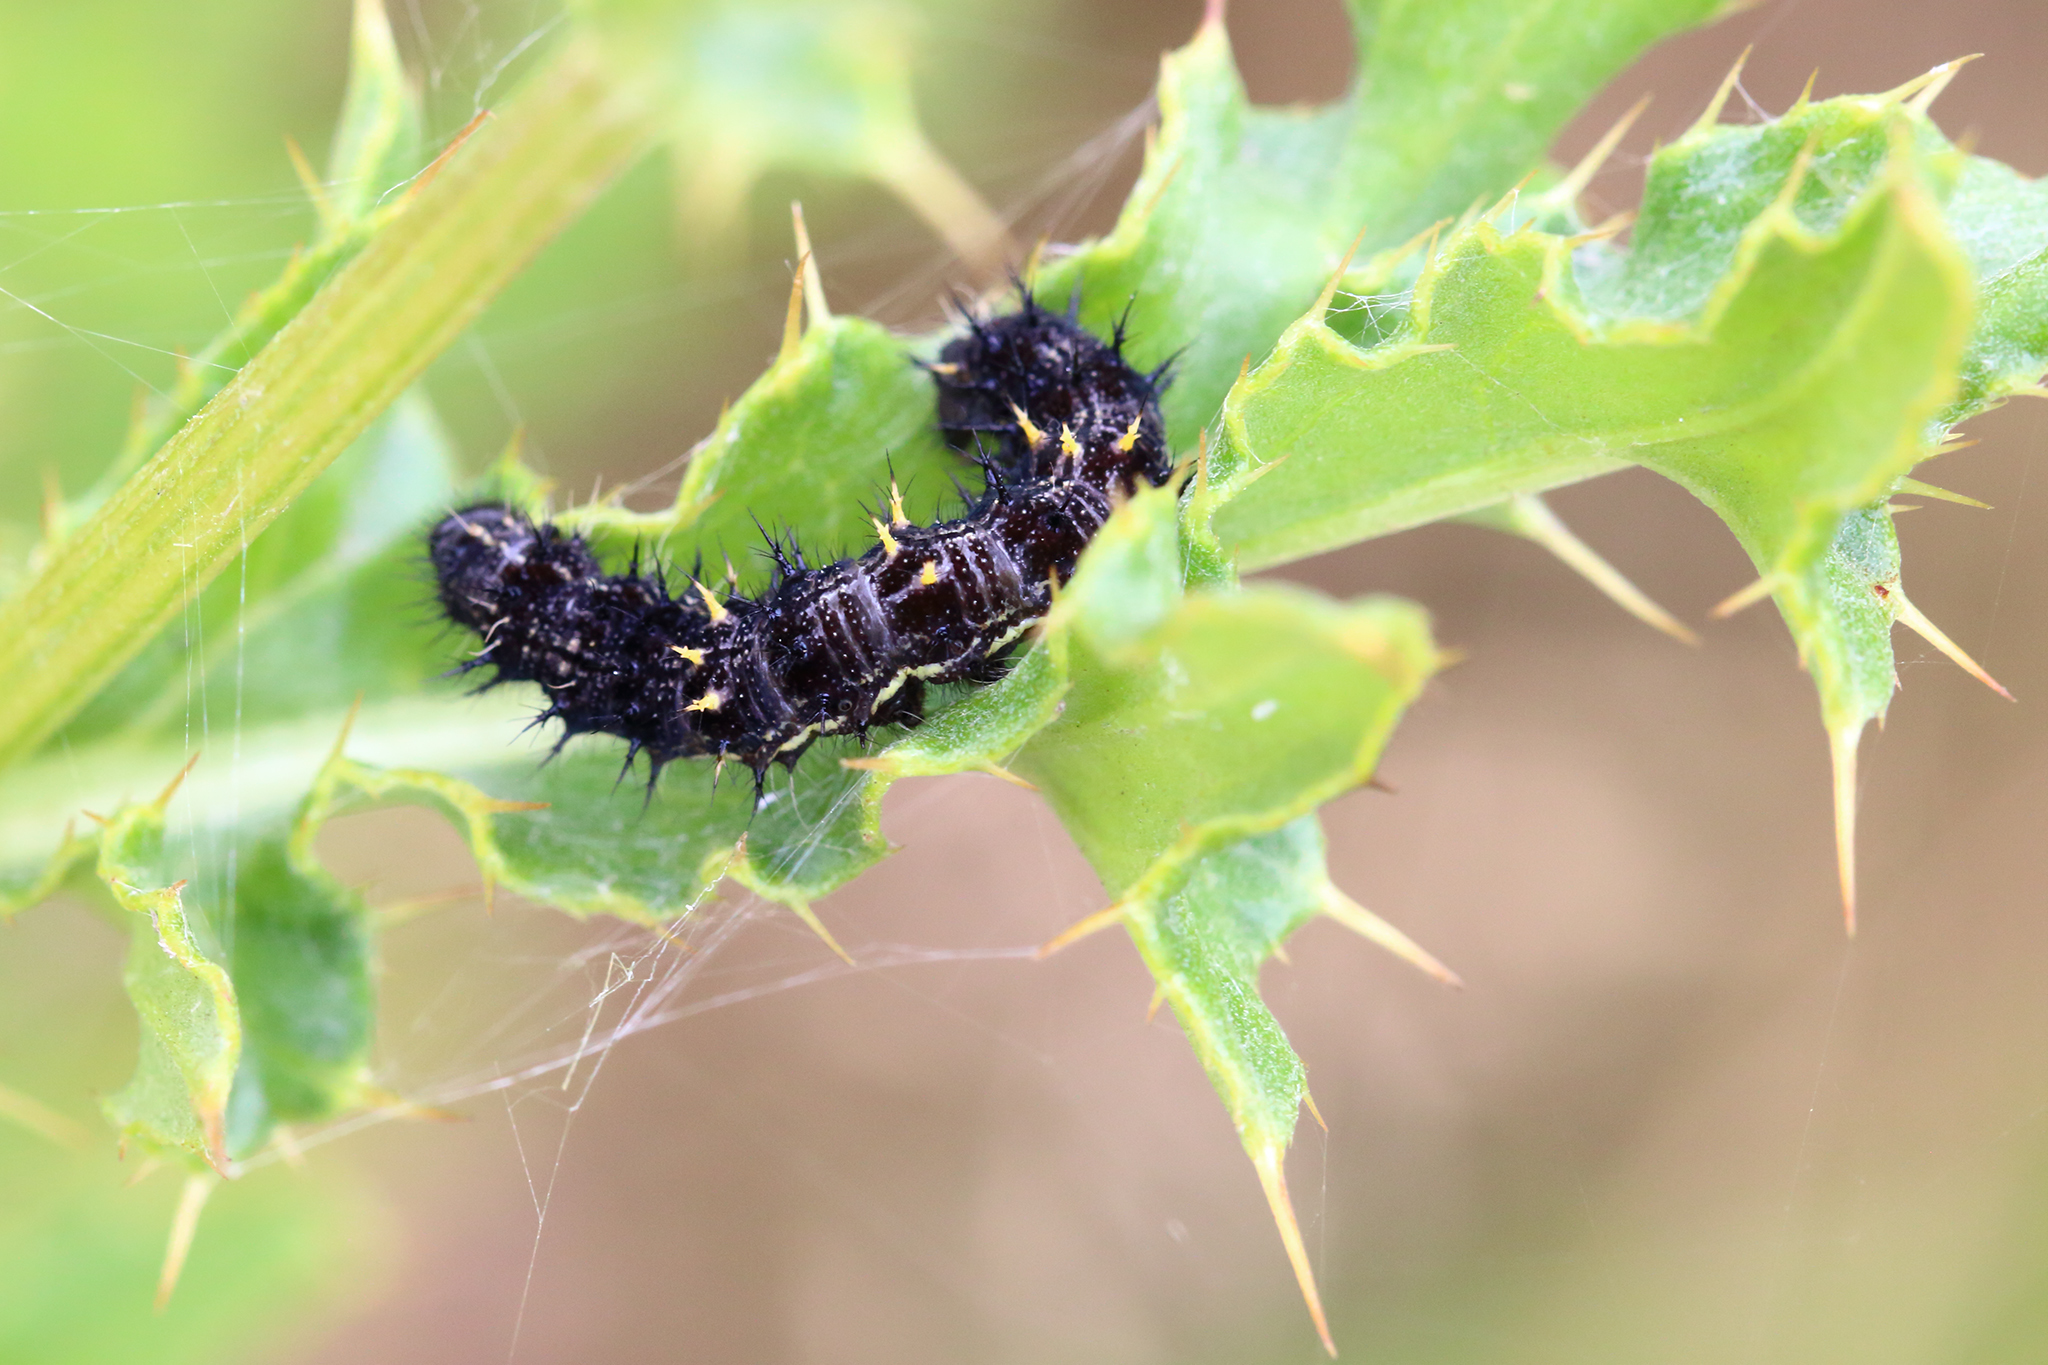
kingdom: Animalia
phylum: Arthropoda
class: Insecta
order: Lepidoptera
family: Nymphalidae
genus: Vanessa
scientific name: Vanessa cardui
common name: Painted lady
